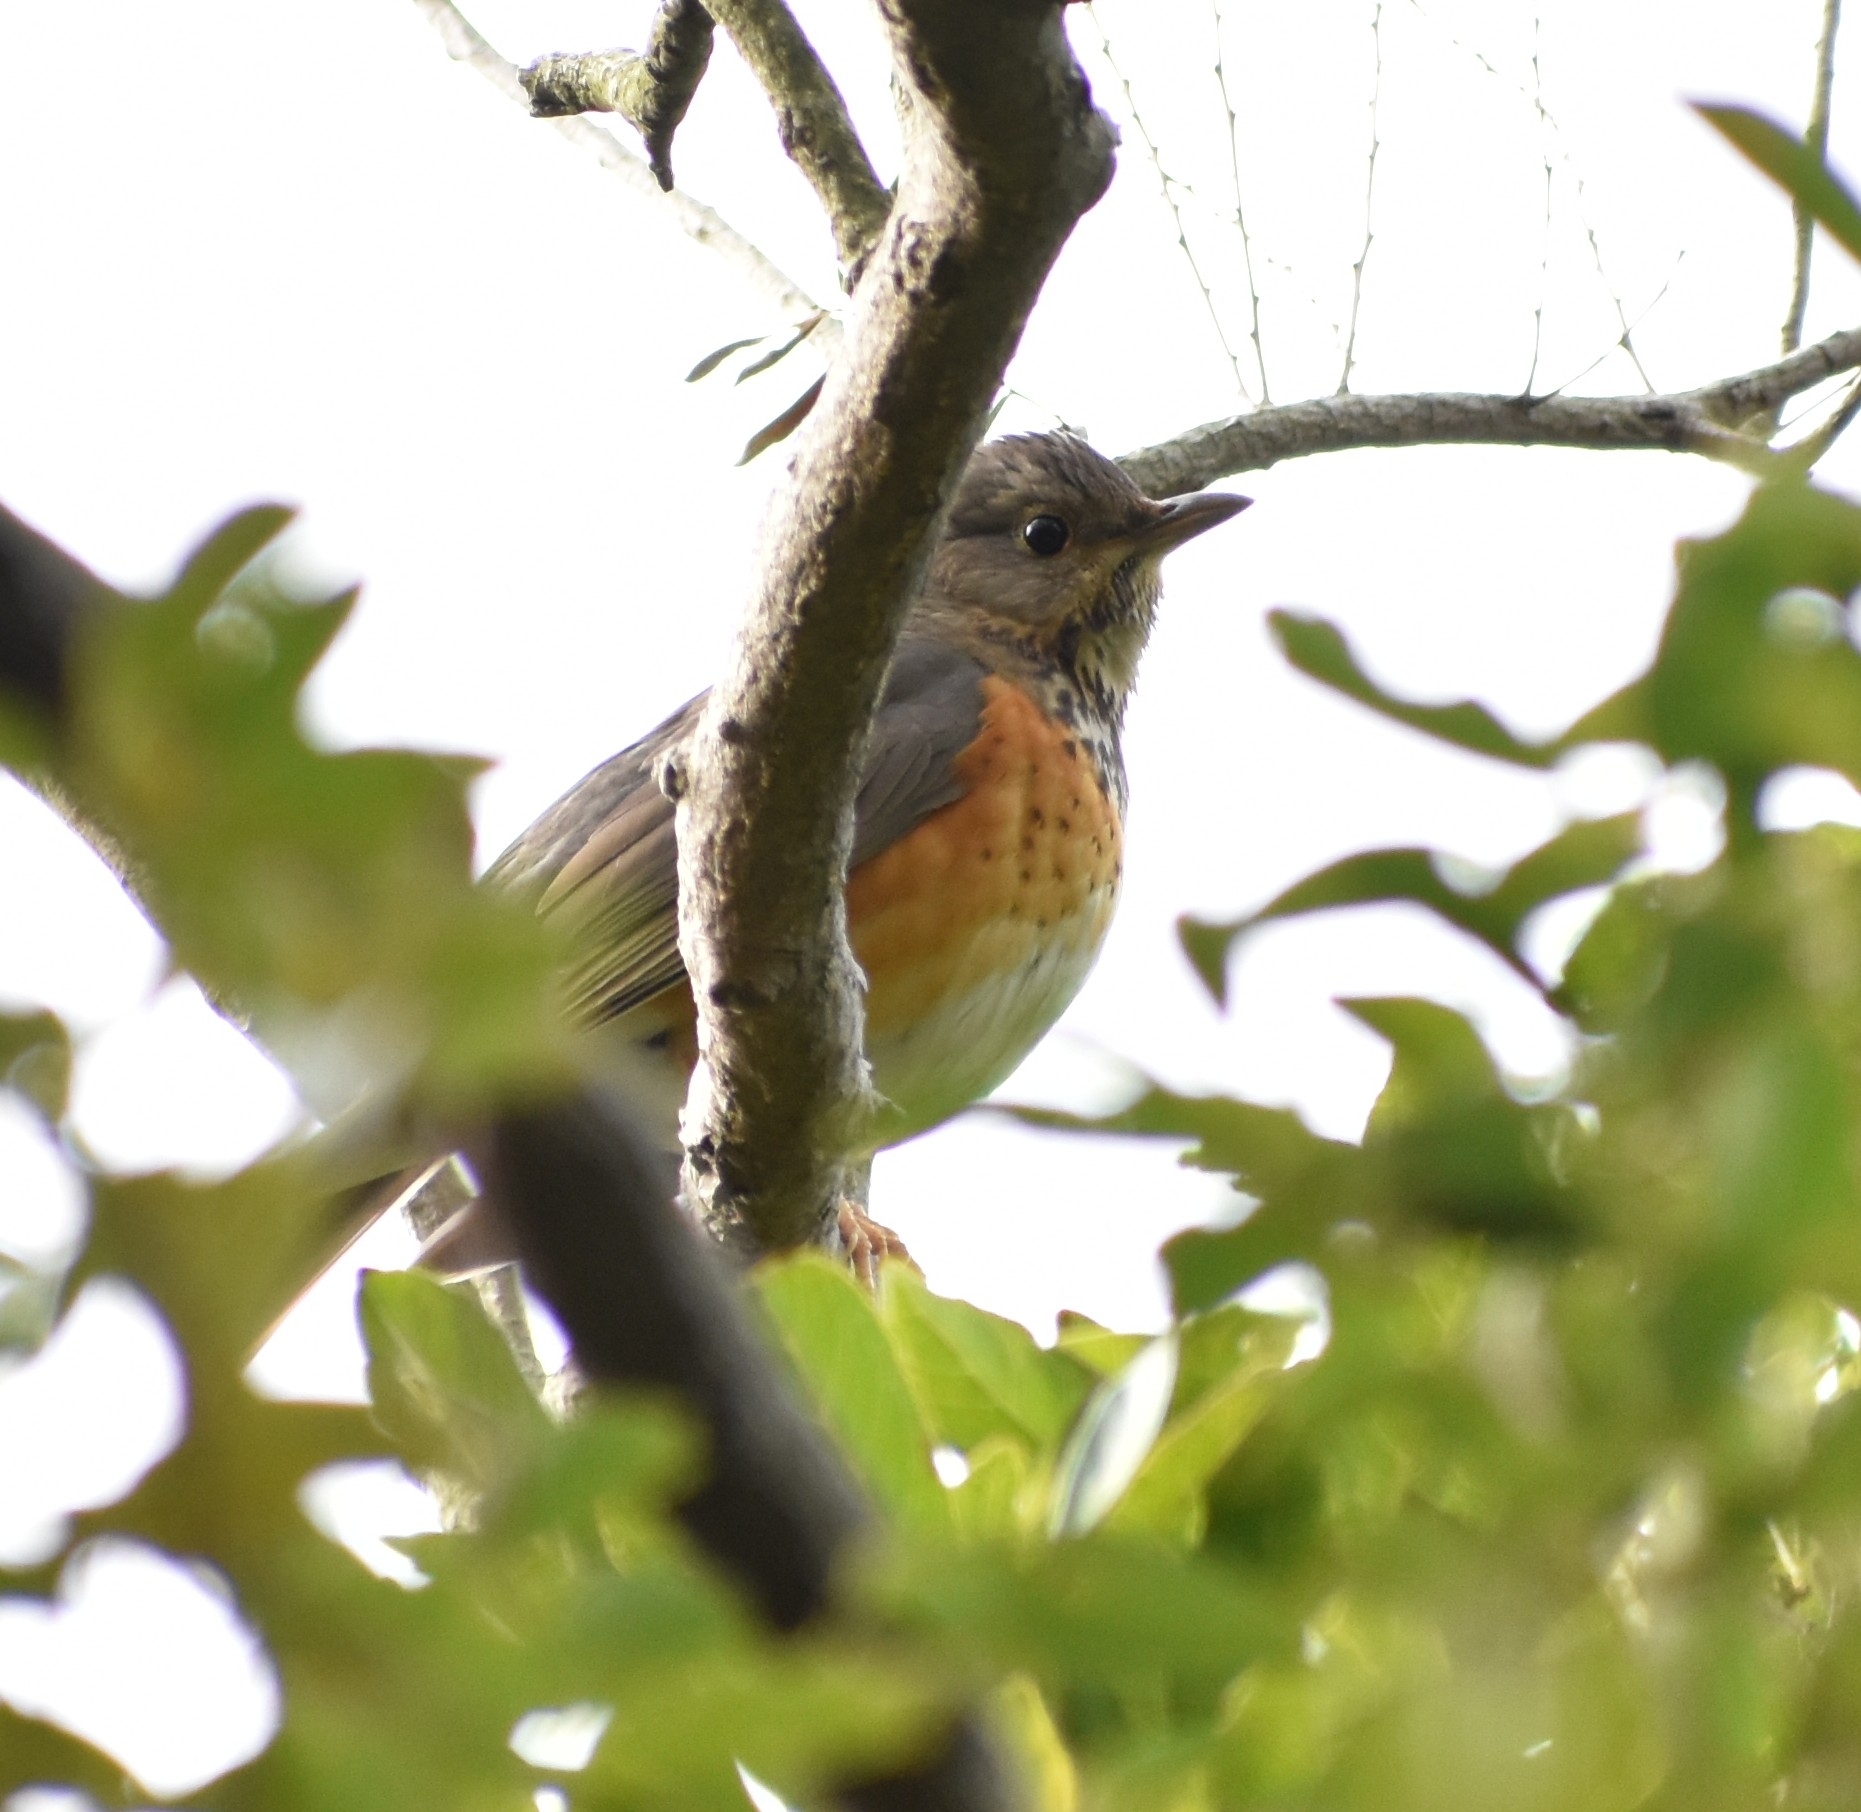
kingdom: Animalia
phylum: Chordata
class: Aves
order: Passeriformes
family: Turdidae
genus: Turdus
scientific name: Turdus hortulorum
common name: Grey-backed thrush
